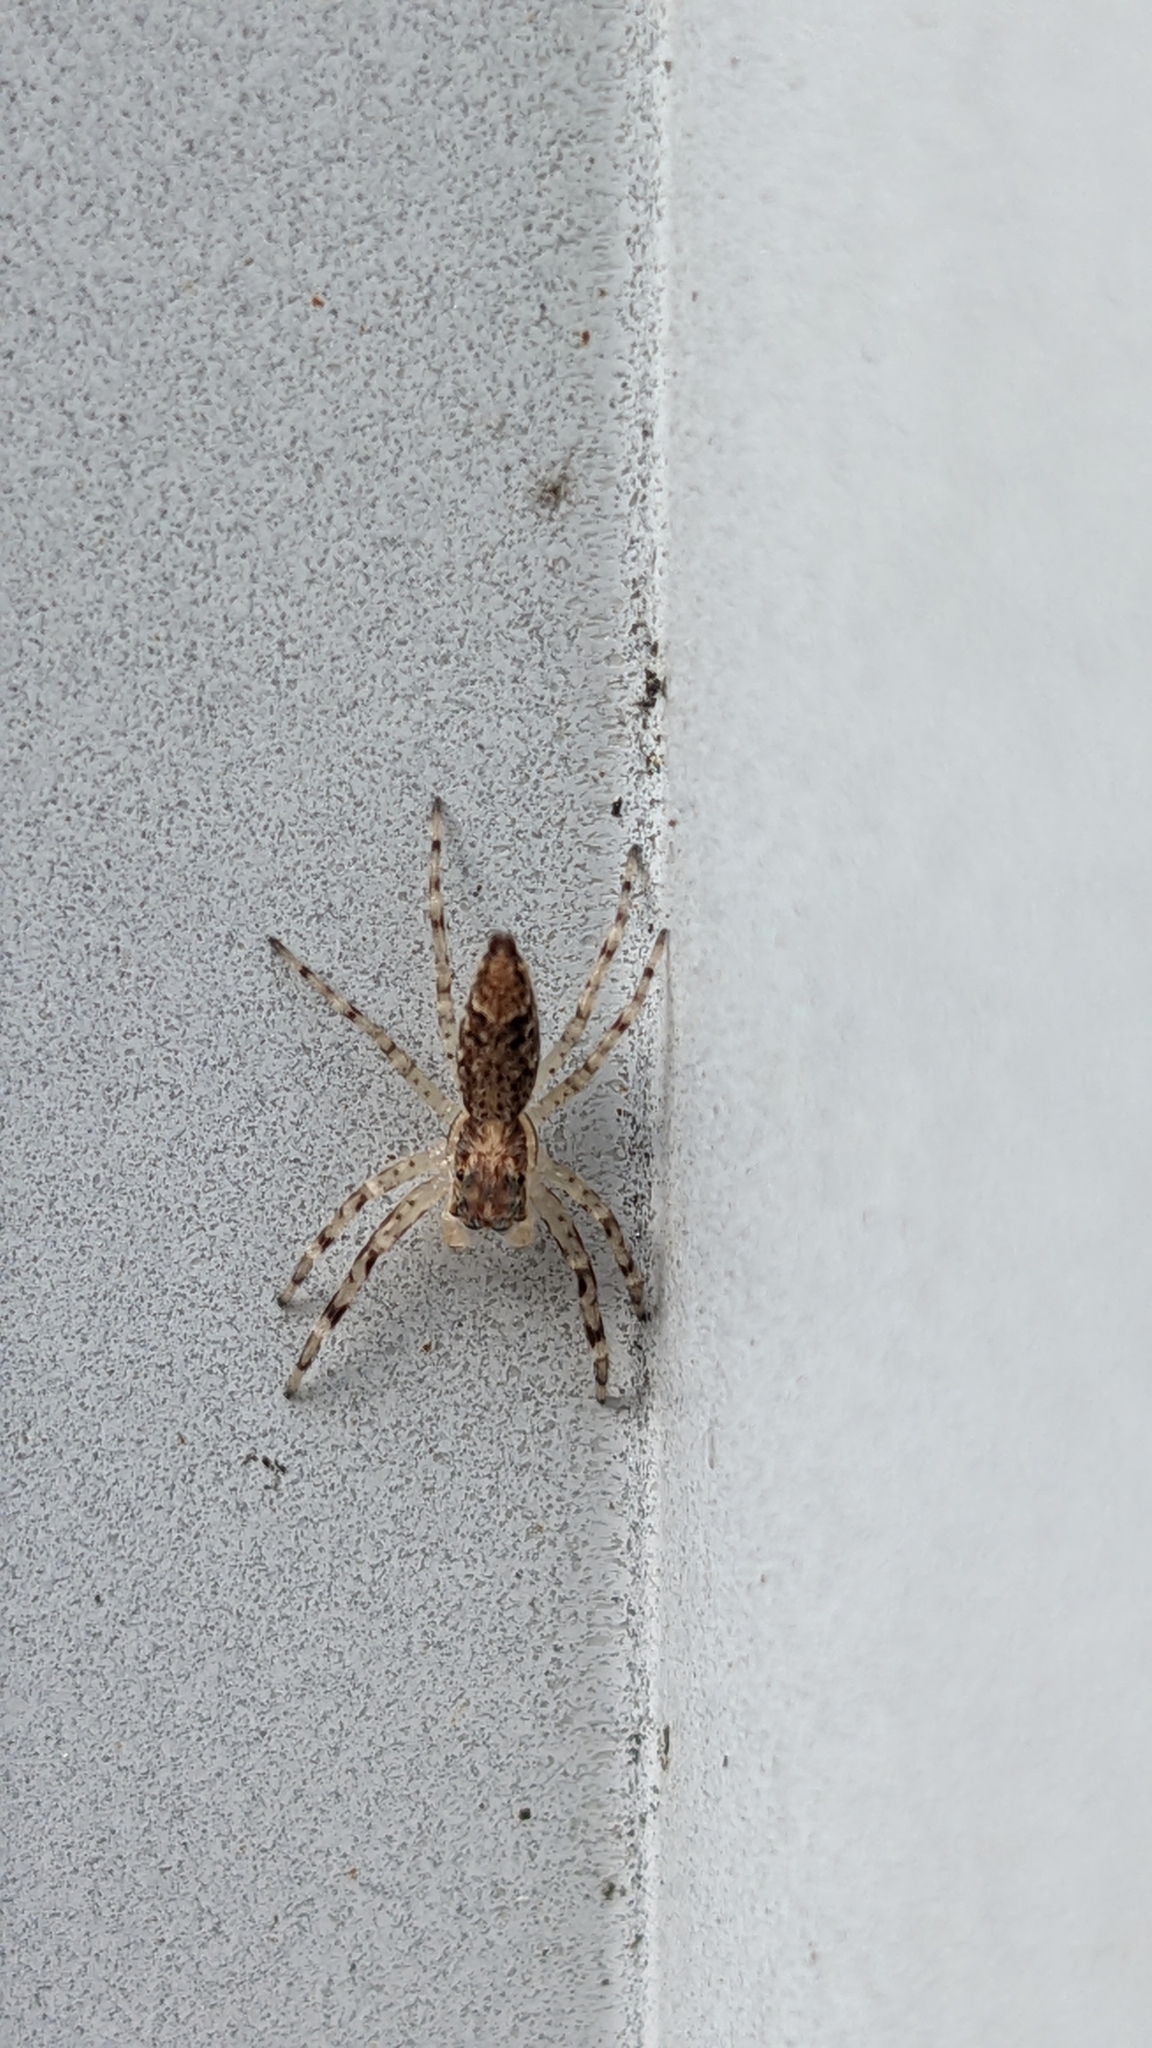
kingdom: Animalia
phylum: Arthropoda
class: Arachnida
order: Araneae
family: Salticidae
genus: Helpis
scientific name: Helpis minitabunda
